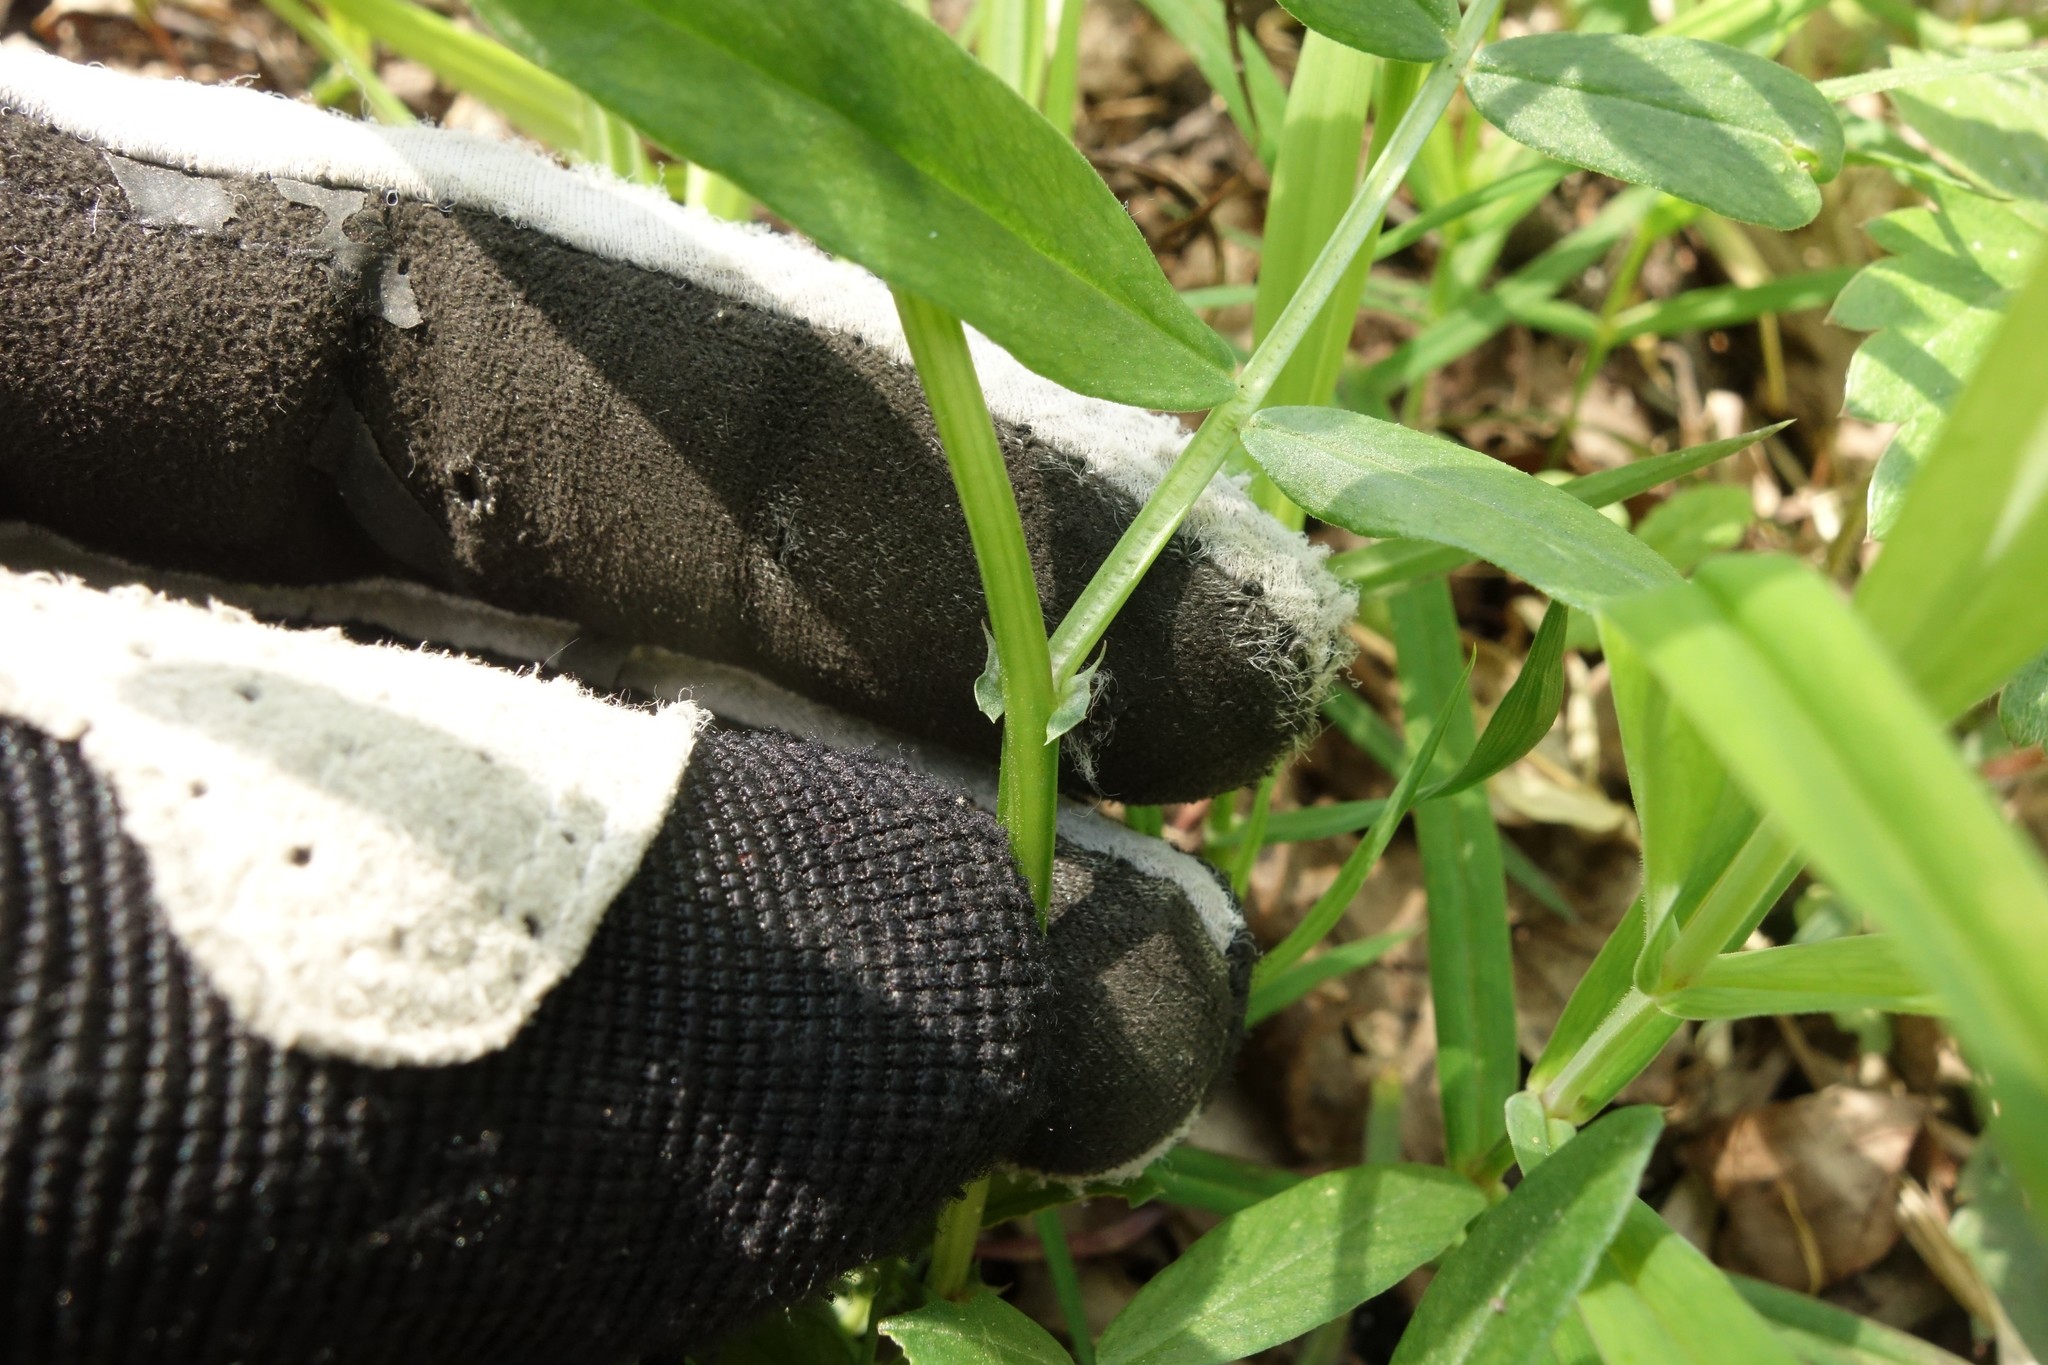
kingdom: Plantae
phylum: Tracheophyta
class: Magnoliopsida
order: Fabales
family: Fabaceae
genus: Vicia
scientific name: Vicia sepium
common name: Bush vetch
